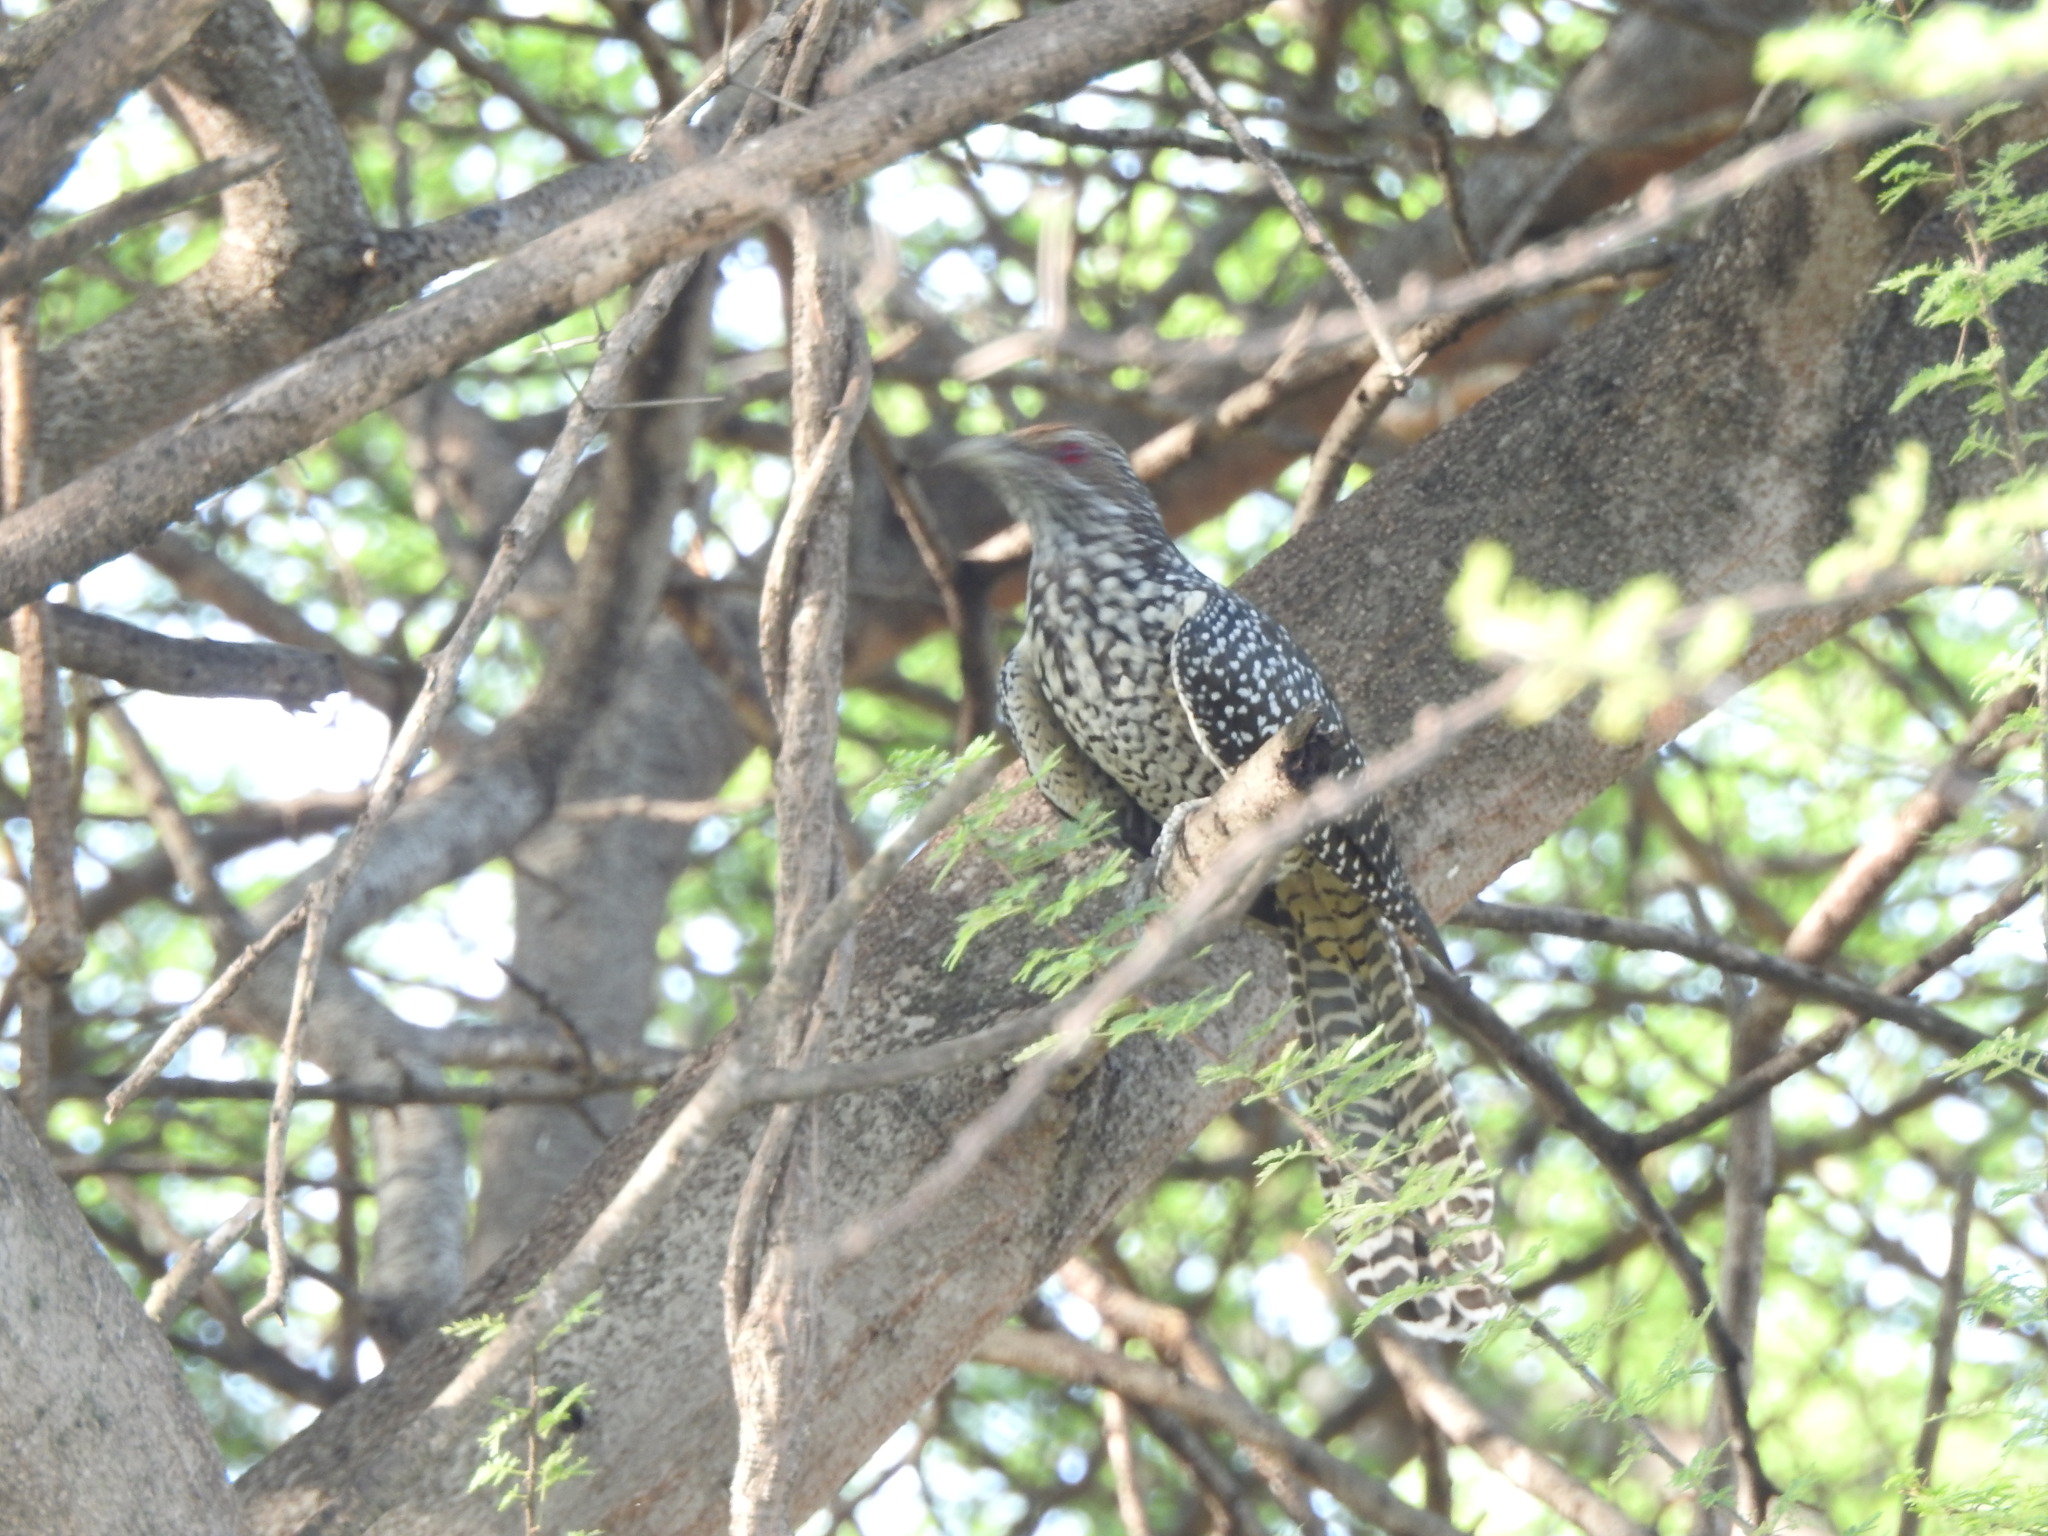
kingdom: Animalia
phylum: Chordata
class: Aves
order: Cuculiformes
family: Cuculidae
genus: Eudynamys
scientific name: Eudynamys scolopaceus
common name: Asian koel
